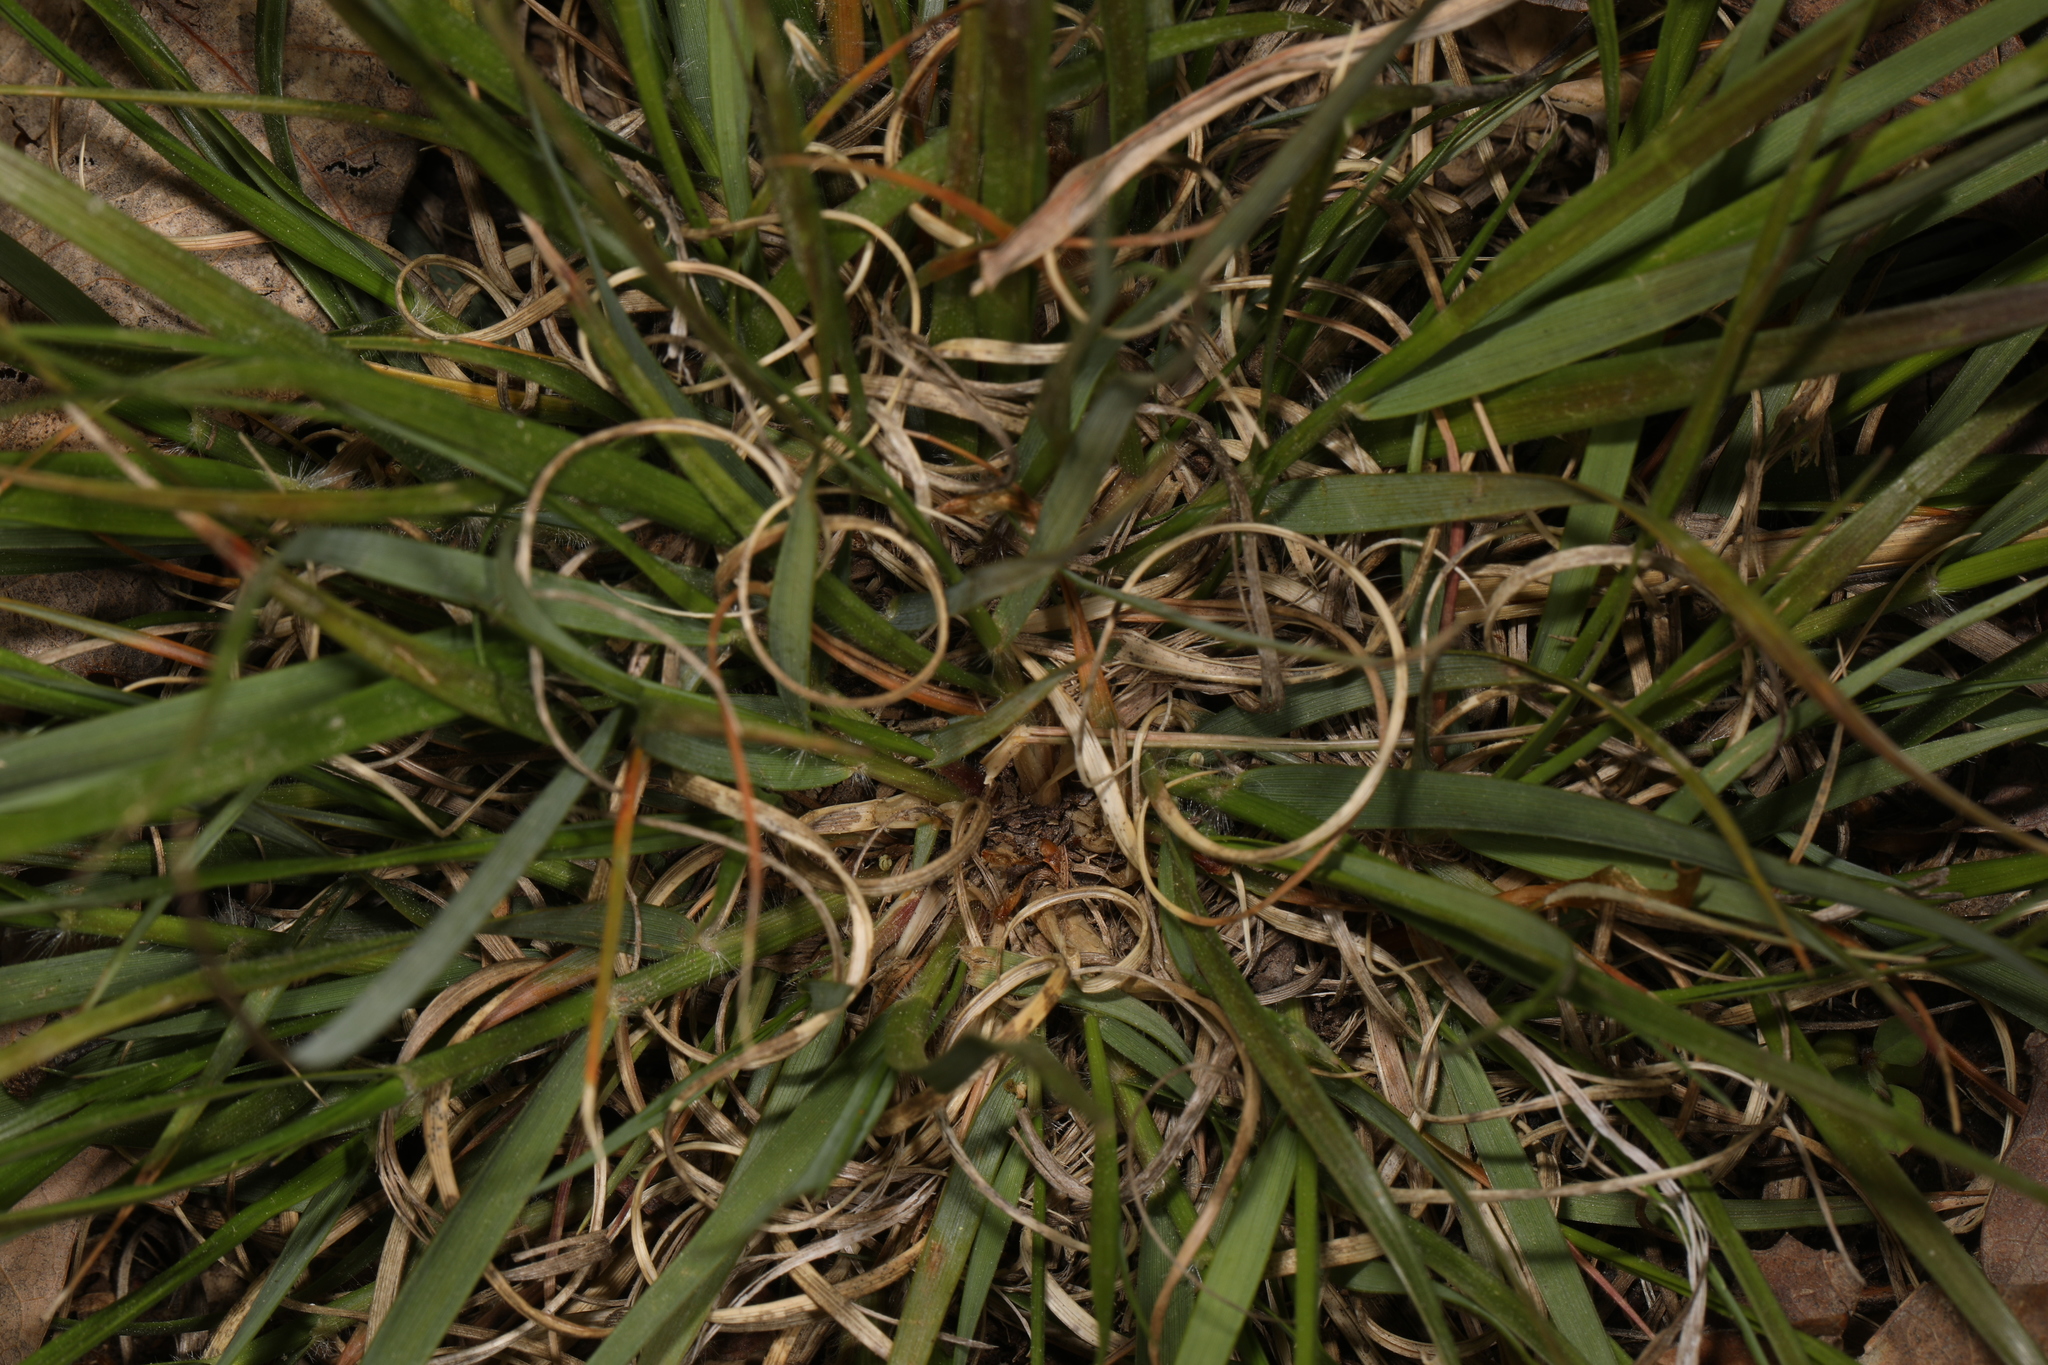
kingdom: Plantae
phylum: Tracheophyta
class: Liliopsida
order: Poales
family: Poaceae
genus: Danthonia
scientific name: Danthonia spicata
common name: Common wild oatgrass
